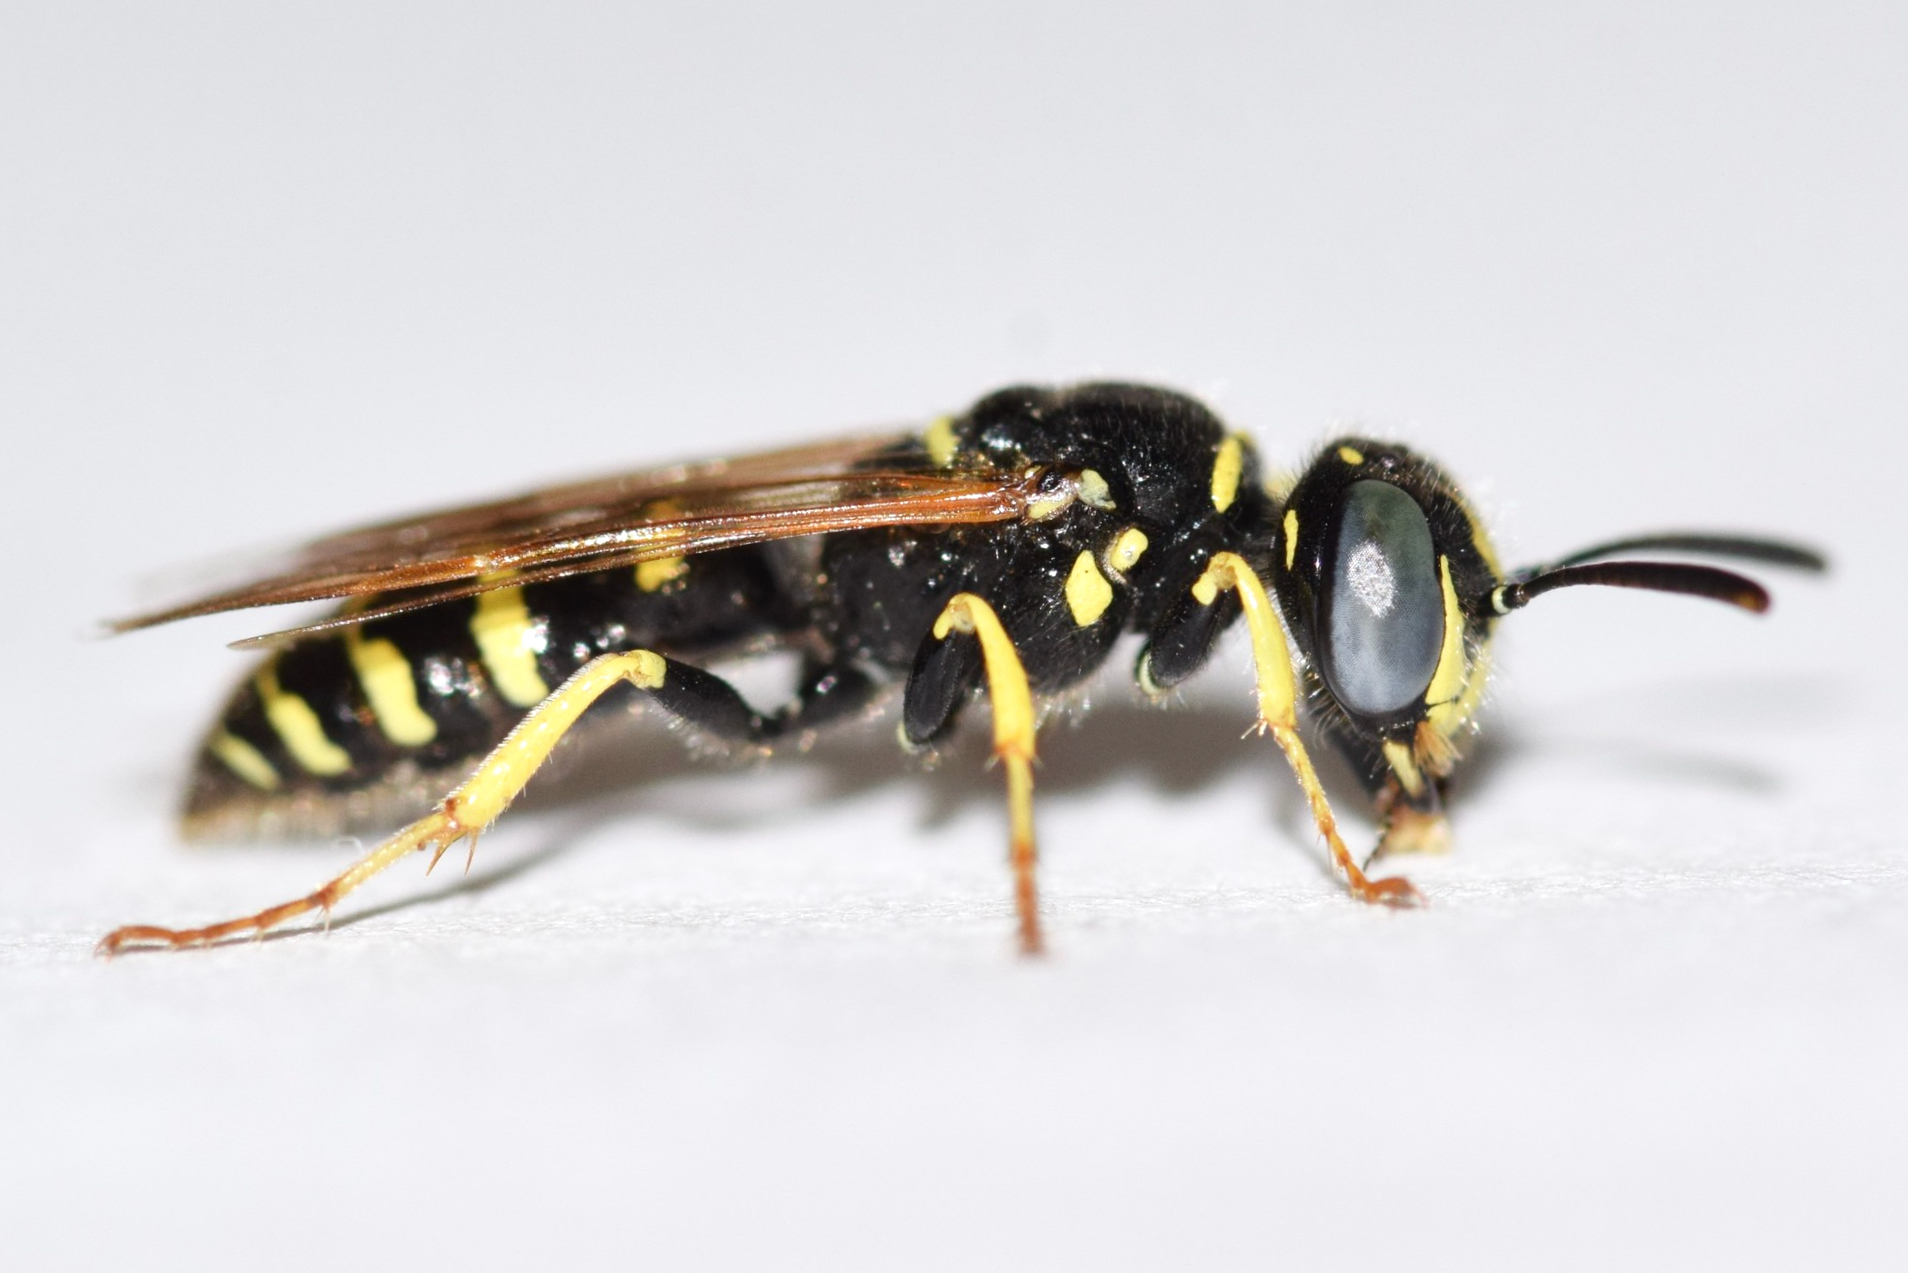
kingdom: Animalia
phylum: Arthropoda
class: Insecta
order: Hymenoptera
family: Crabronidae
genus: Philanthus
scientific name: Philanthus politus
